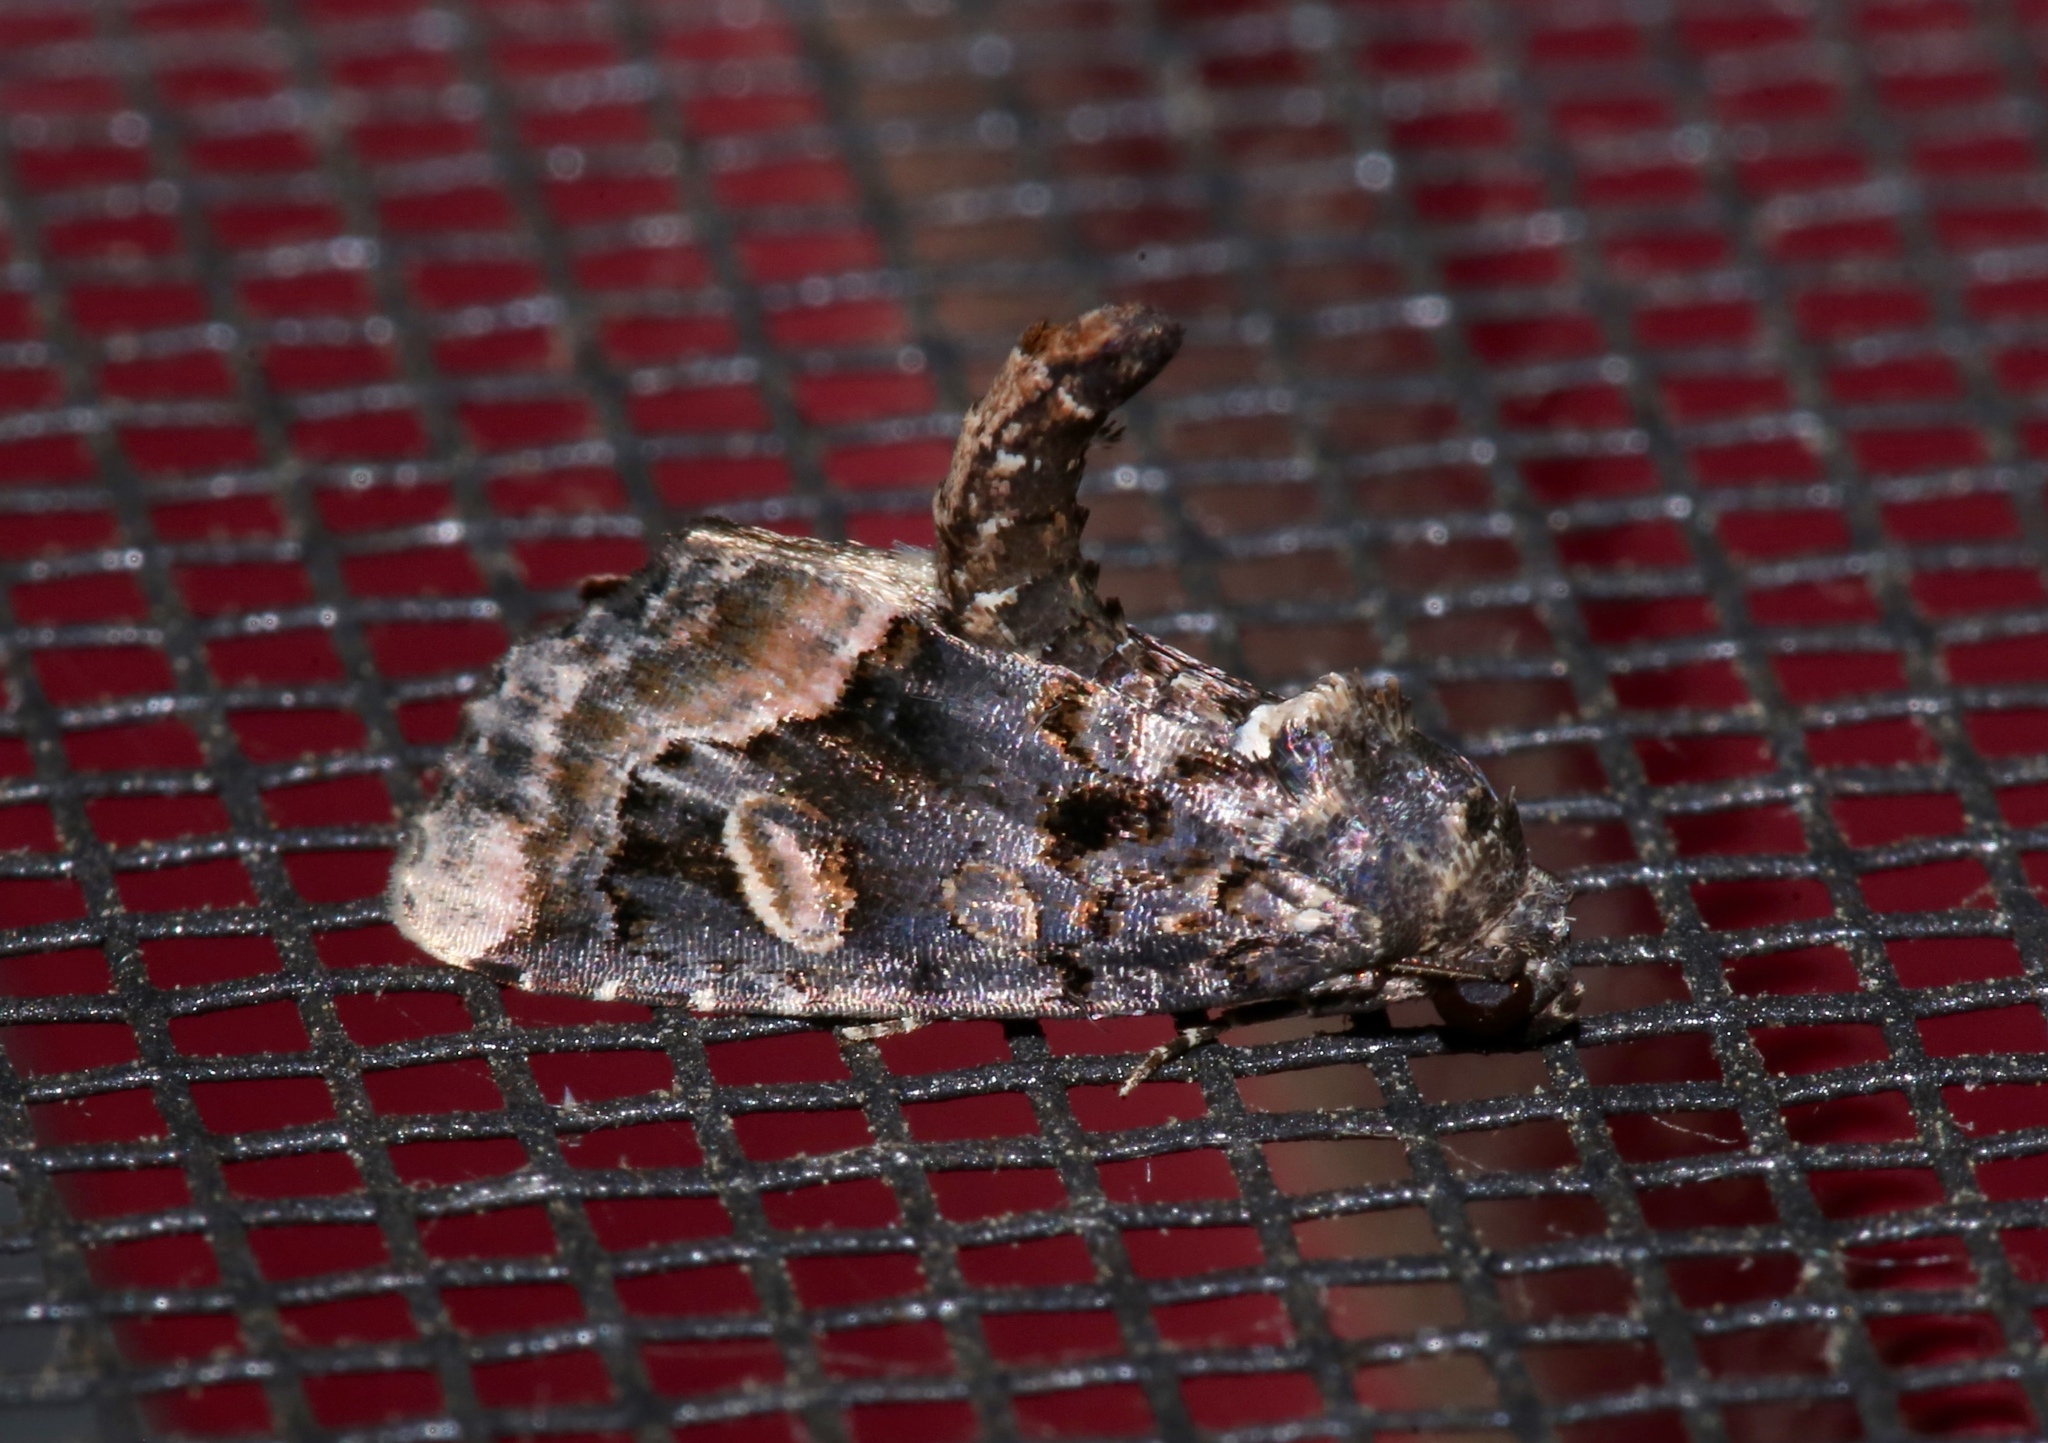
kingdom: Animalia
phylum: Arthropoda
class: Insecta
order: Lepidoptera
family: Noctuidae
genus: Homophoberia
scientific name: Homophoberia apicosa
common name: Black wedge-spot
